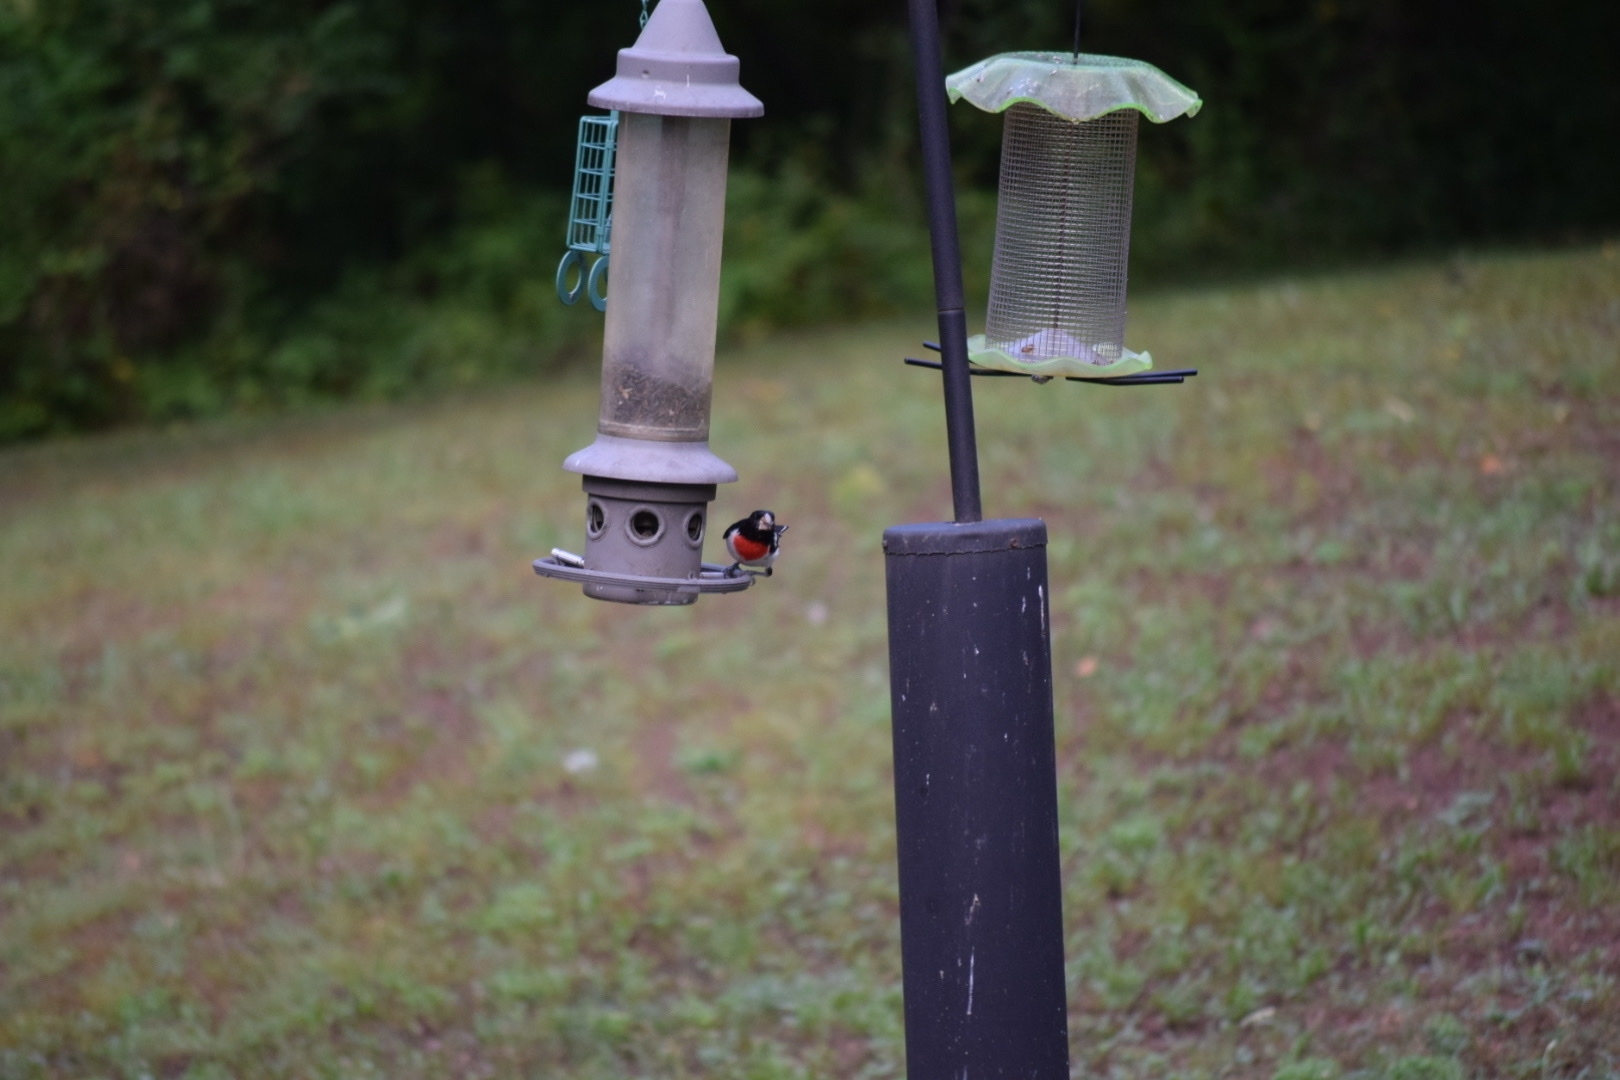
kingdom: Animalia
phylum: Chordata
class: Aves
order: Passeriformes
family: Cardinalidae
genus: Pheucticus
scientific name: Pheucticus ludovicianus
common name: Rose-breasted grosbeak
